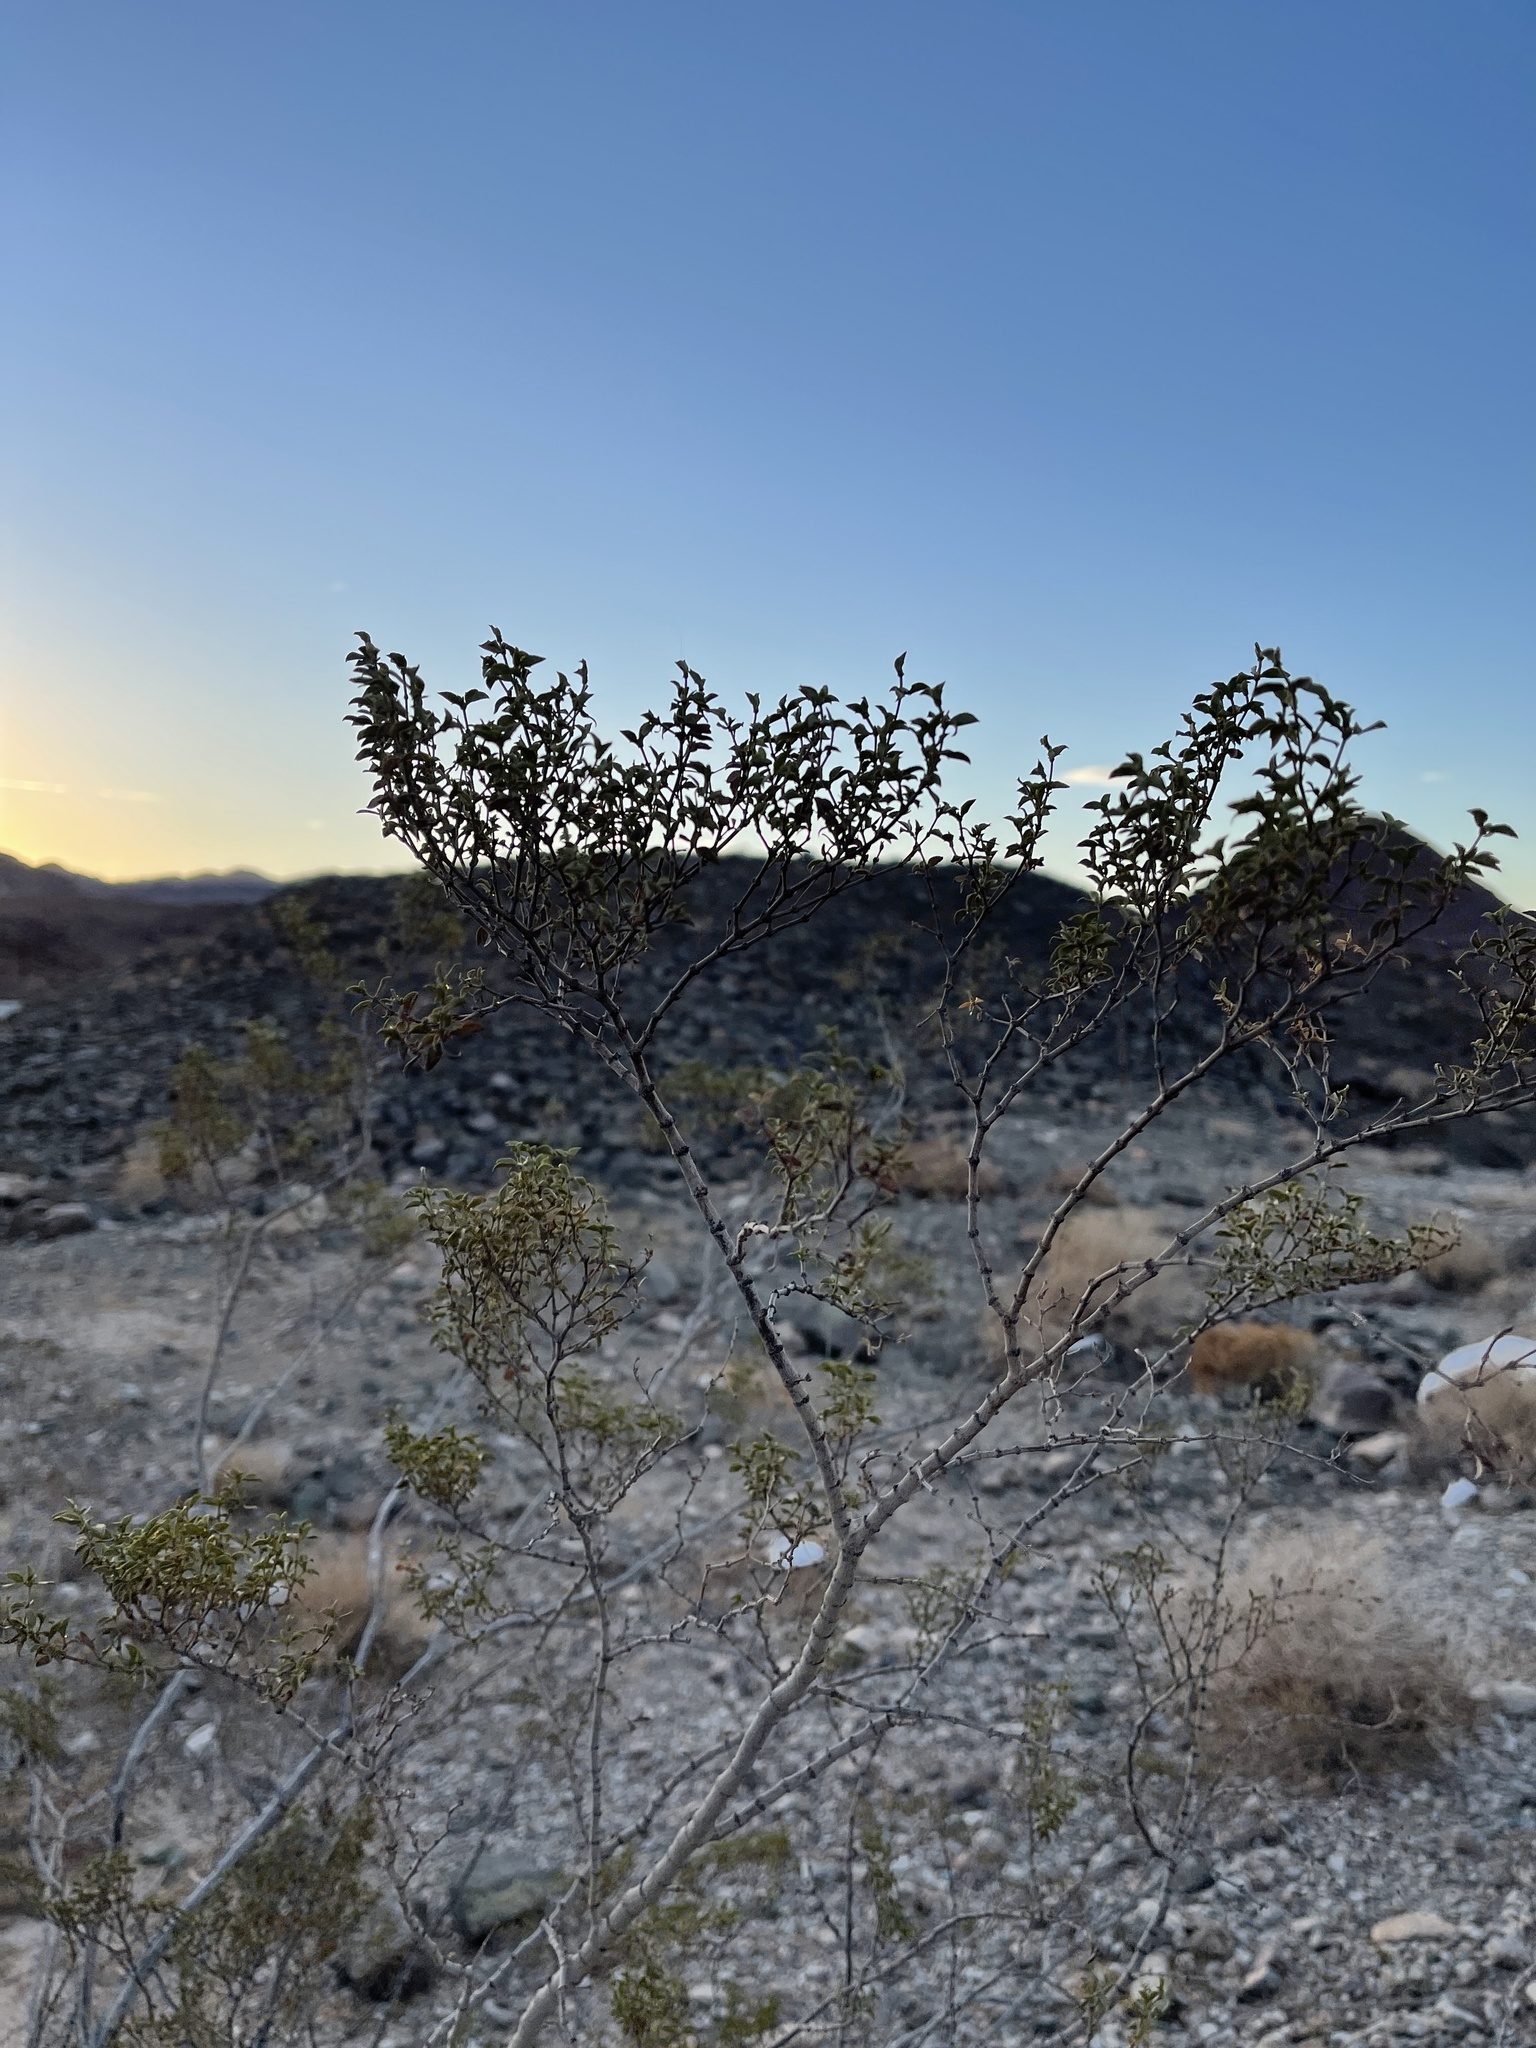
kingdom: Plantae
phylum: Tracheophyta
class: Magnoliopsida
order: Zygophyllales
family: Zygophyllaceae
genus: Larrea
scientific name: Larrea tridentata
